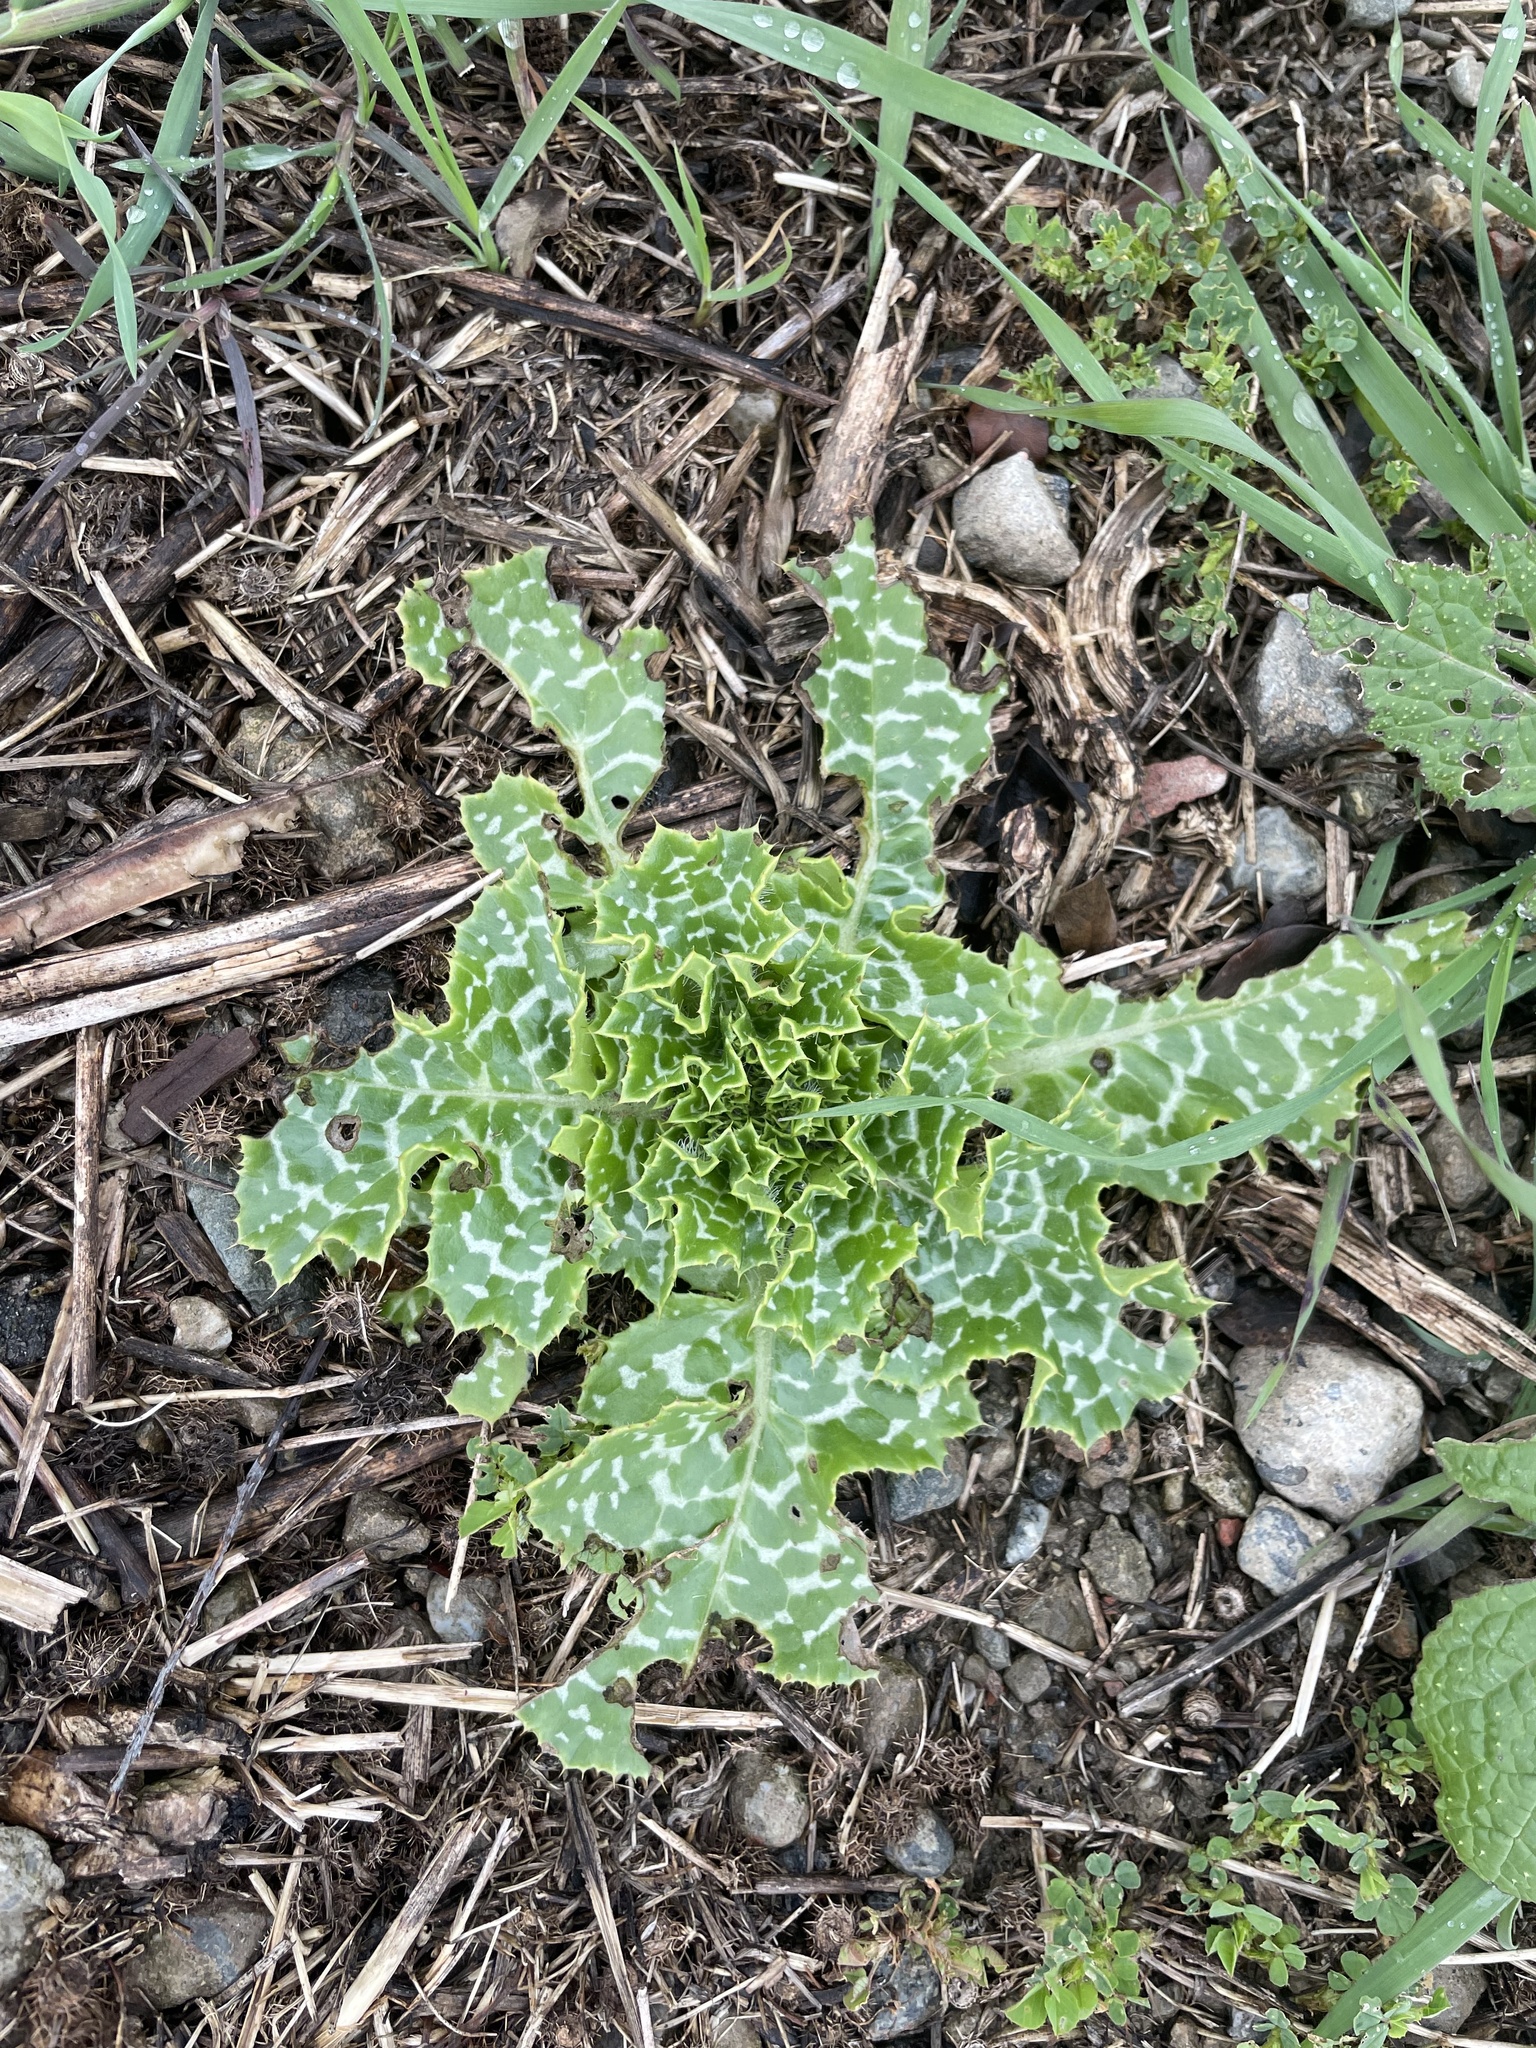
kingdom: Plantae
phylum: Tracheophyta
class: Magnoliopsida
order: Asterales
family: Asteraceae
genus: Silybum
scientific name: Silybum marianum
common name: Milk thistle
